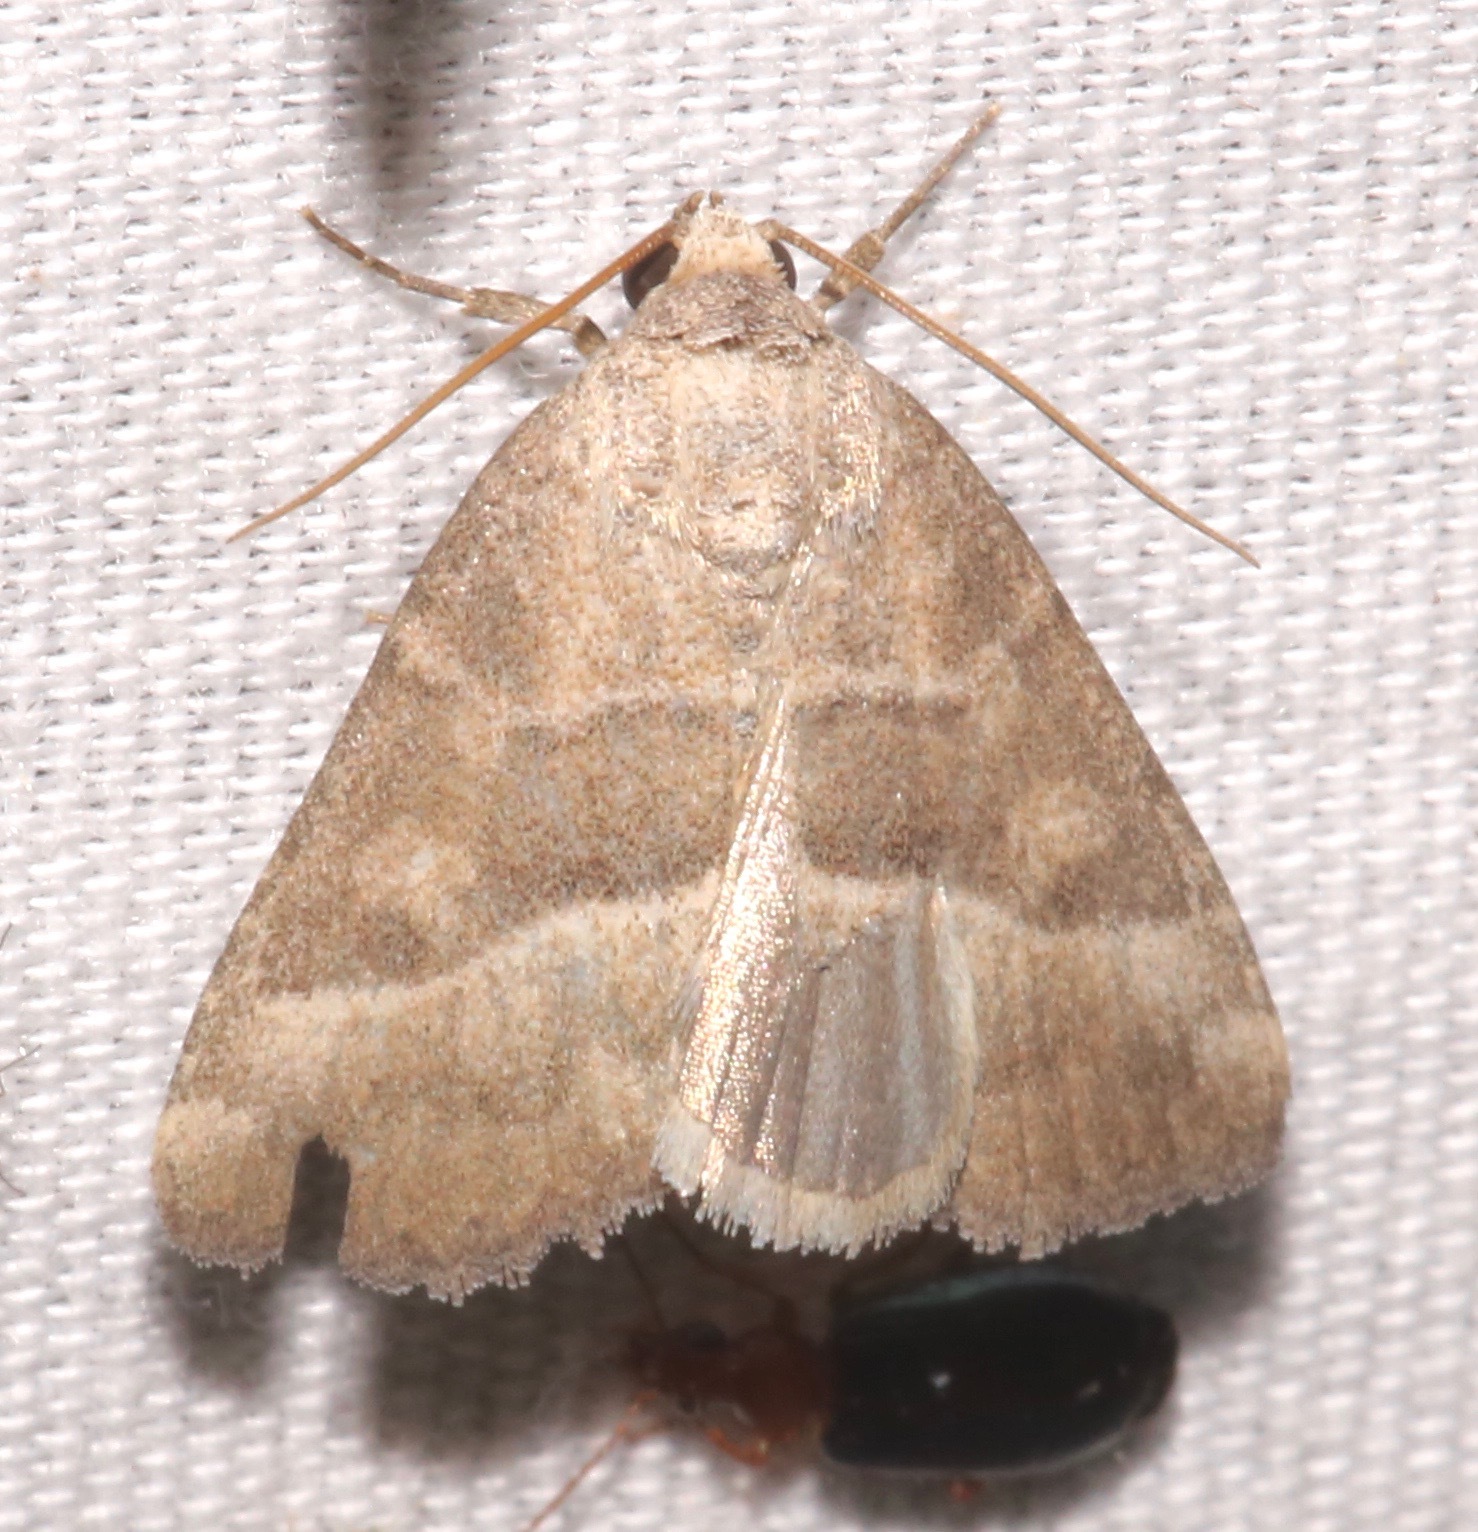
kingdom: Animalia
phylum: Arthropoda
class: Insecta
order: Lepidoptera
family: Noctuidae
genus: Ogdoconta
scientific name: Ogdoconta moreno
